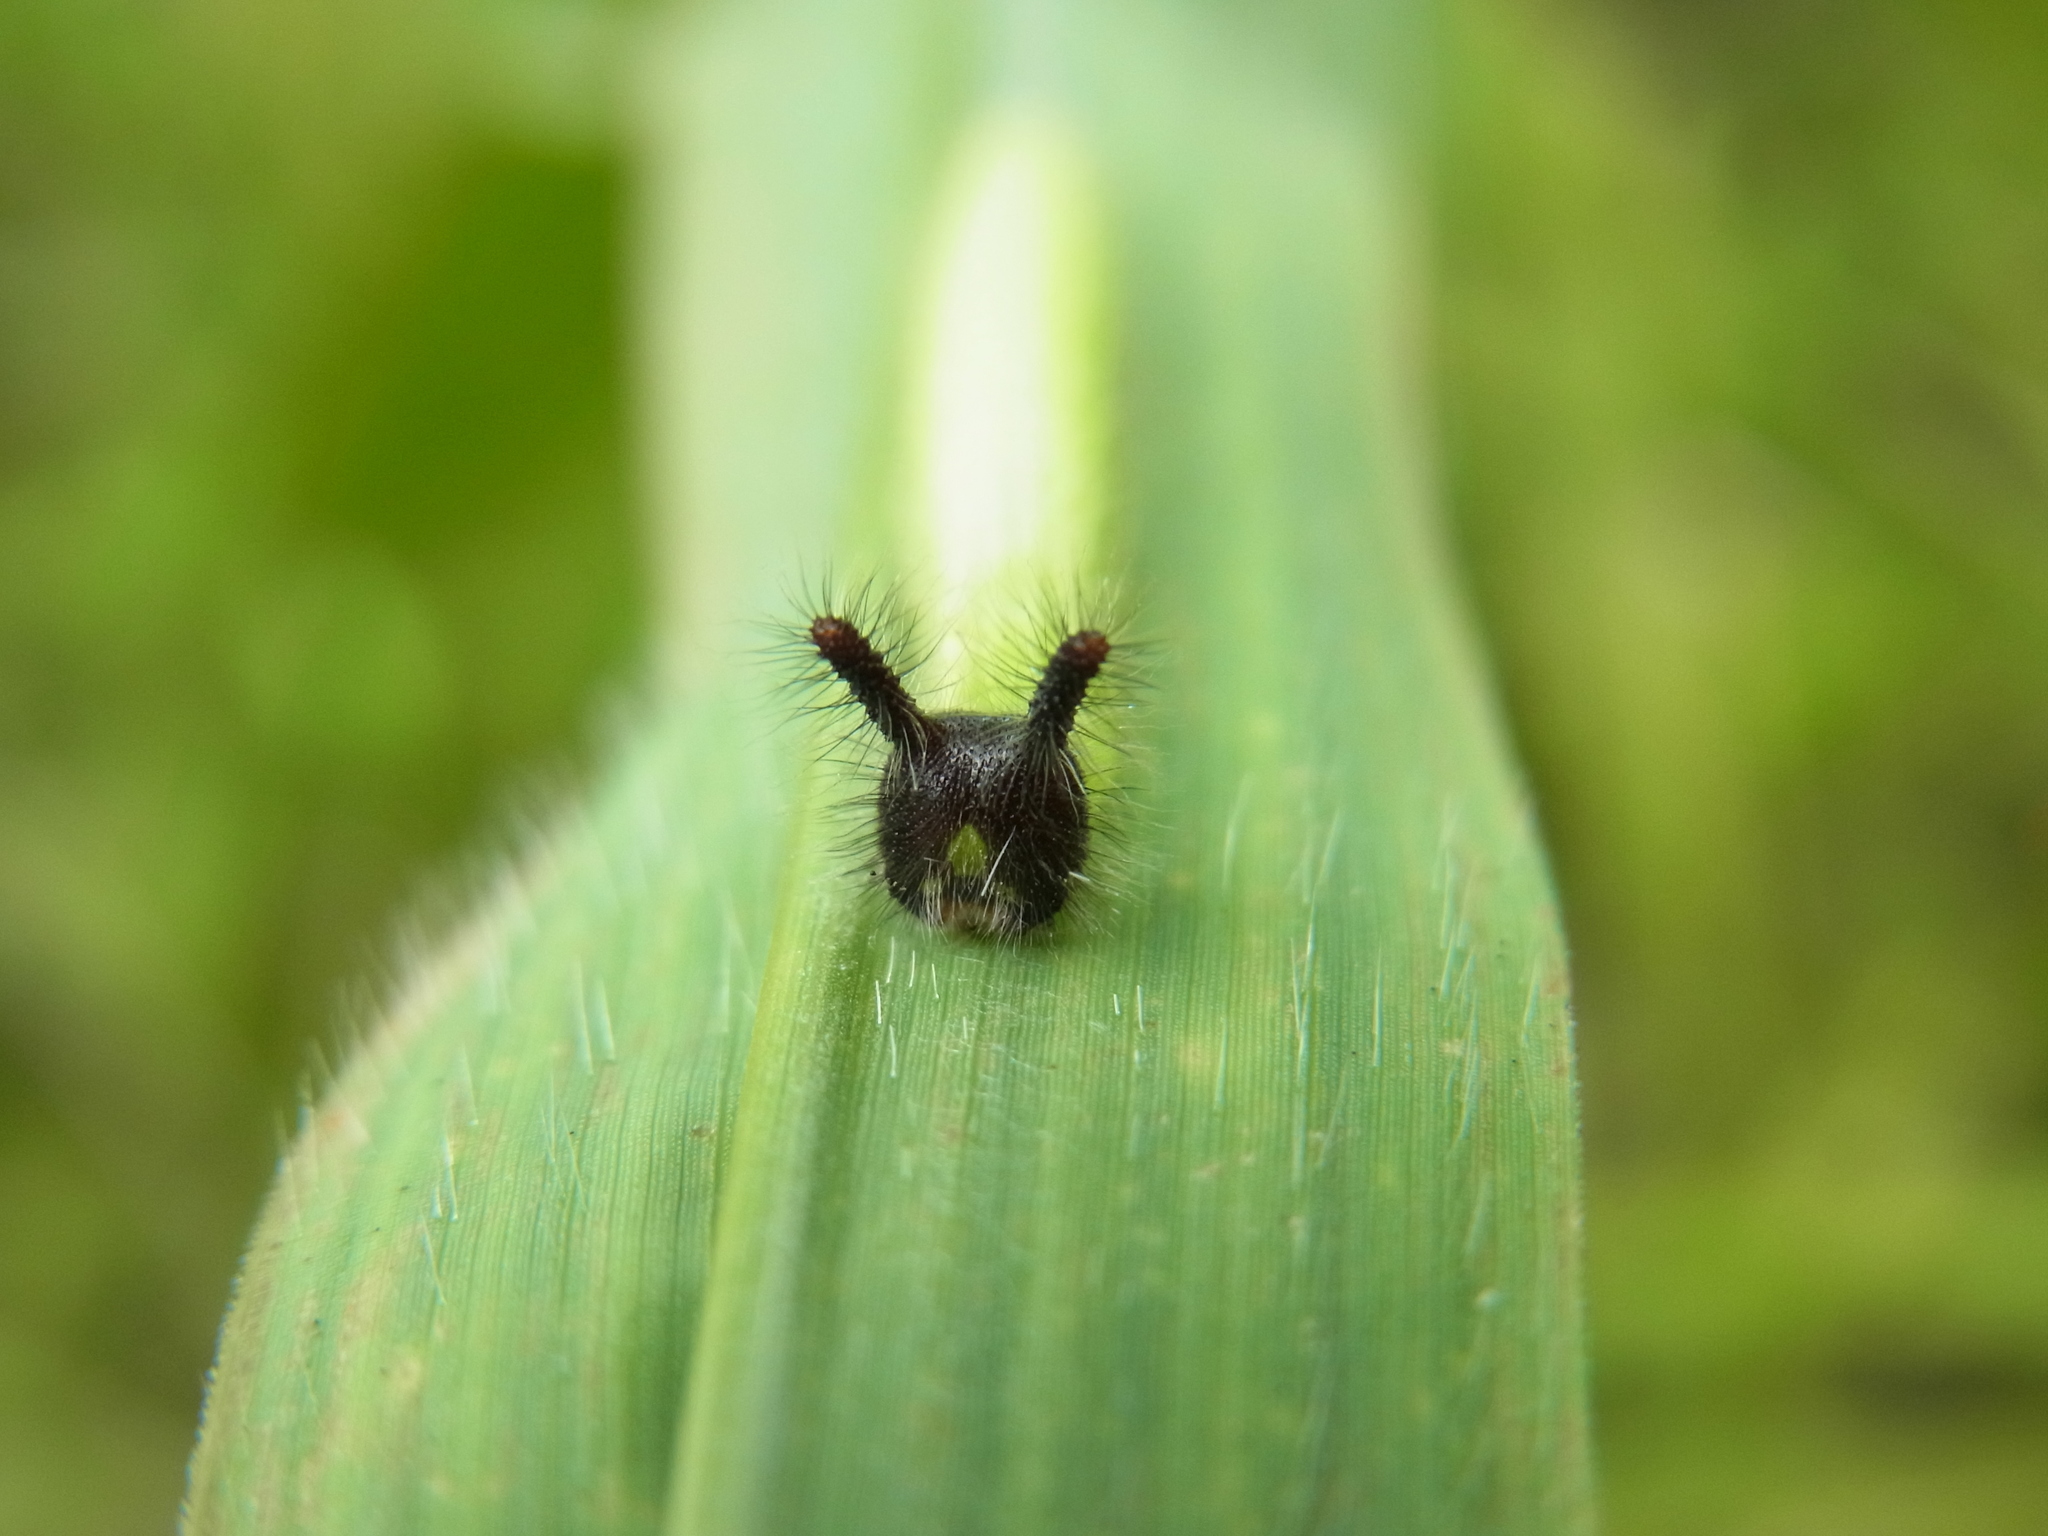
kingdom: Animalia
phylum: Arthropoda
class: Insecta
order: Lepidoptera
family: Nymphalidae
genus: Melanitis
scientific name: Melanitis phedima
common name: Dark evening brown
